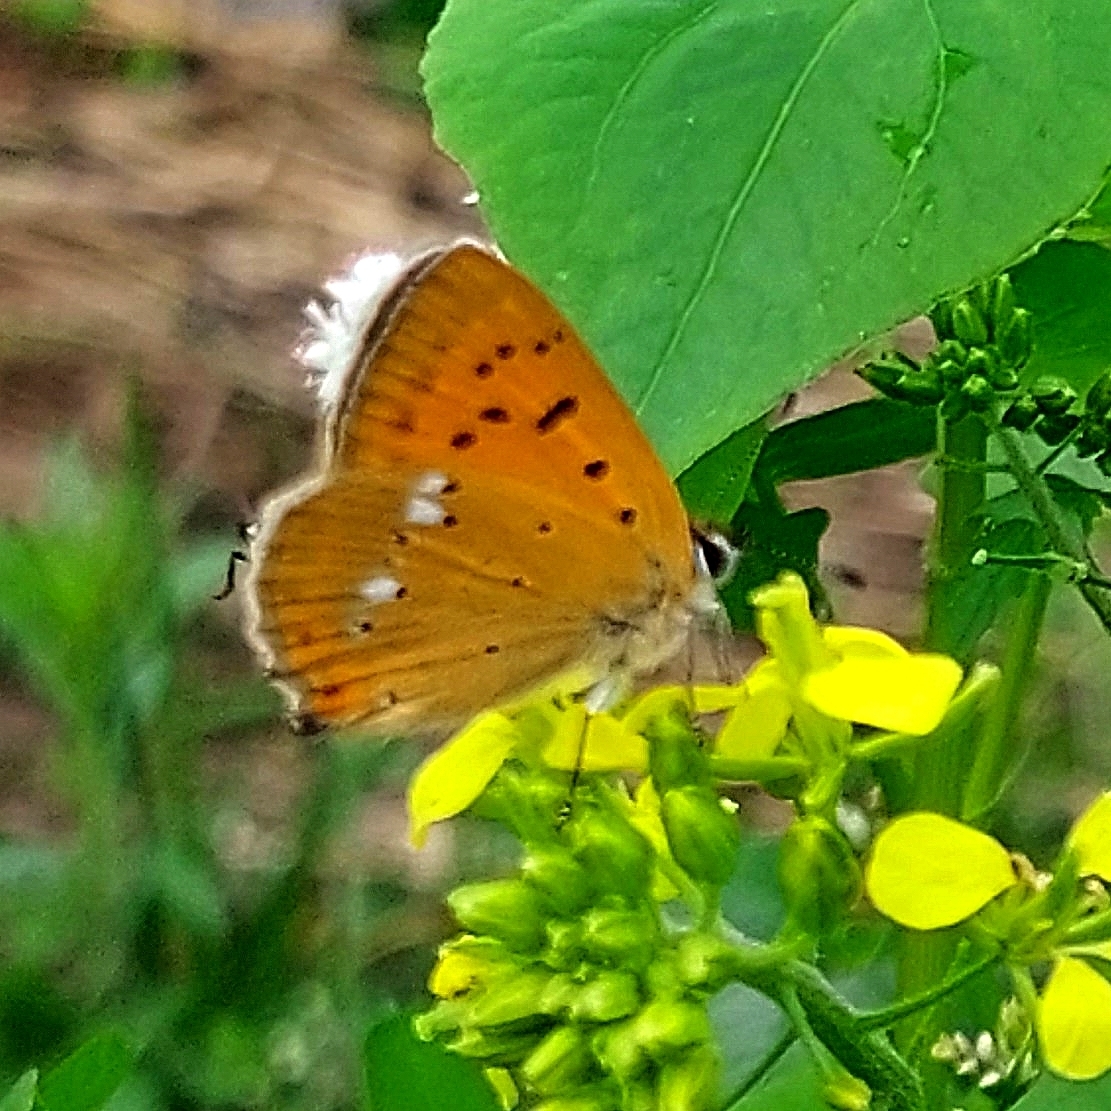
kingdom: Animalia
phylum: Arthropoda
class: Insecta
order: Lepidoptera
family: Lycaenidae
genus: Lycaena
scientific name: Lycaena virgaureae
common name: Scarce copper
